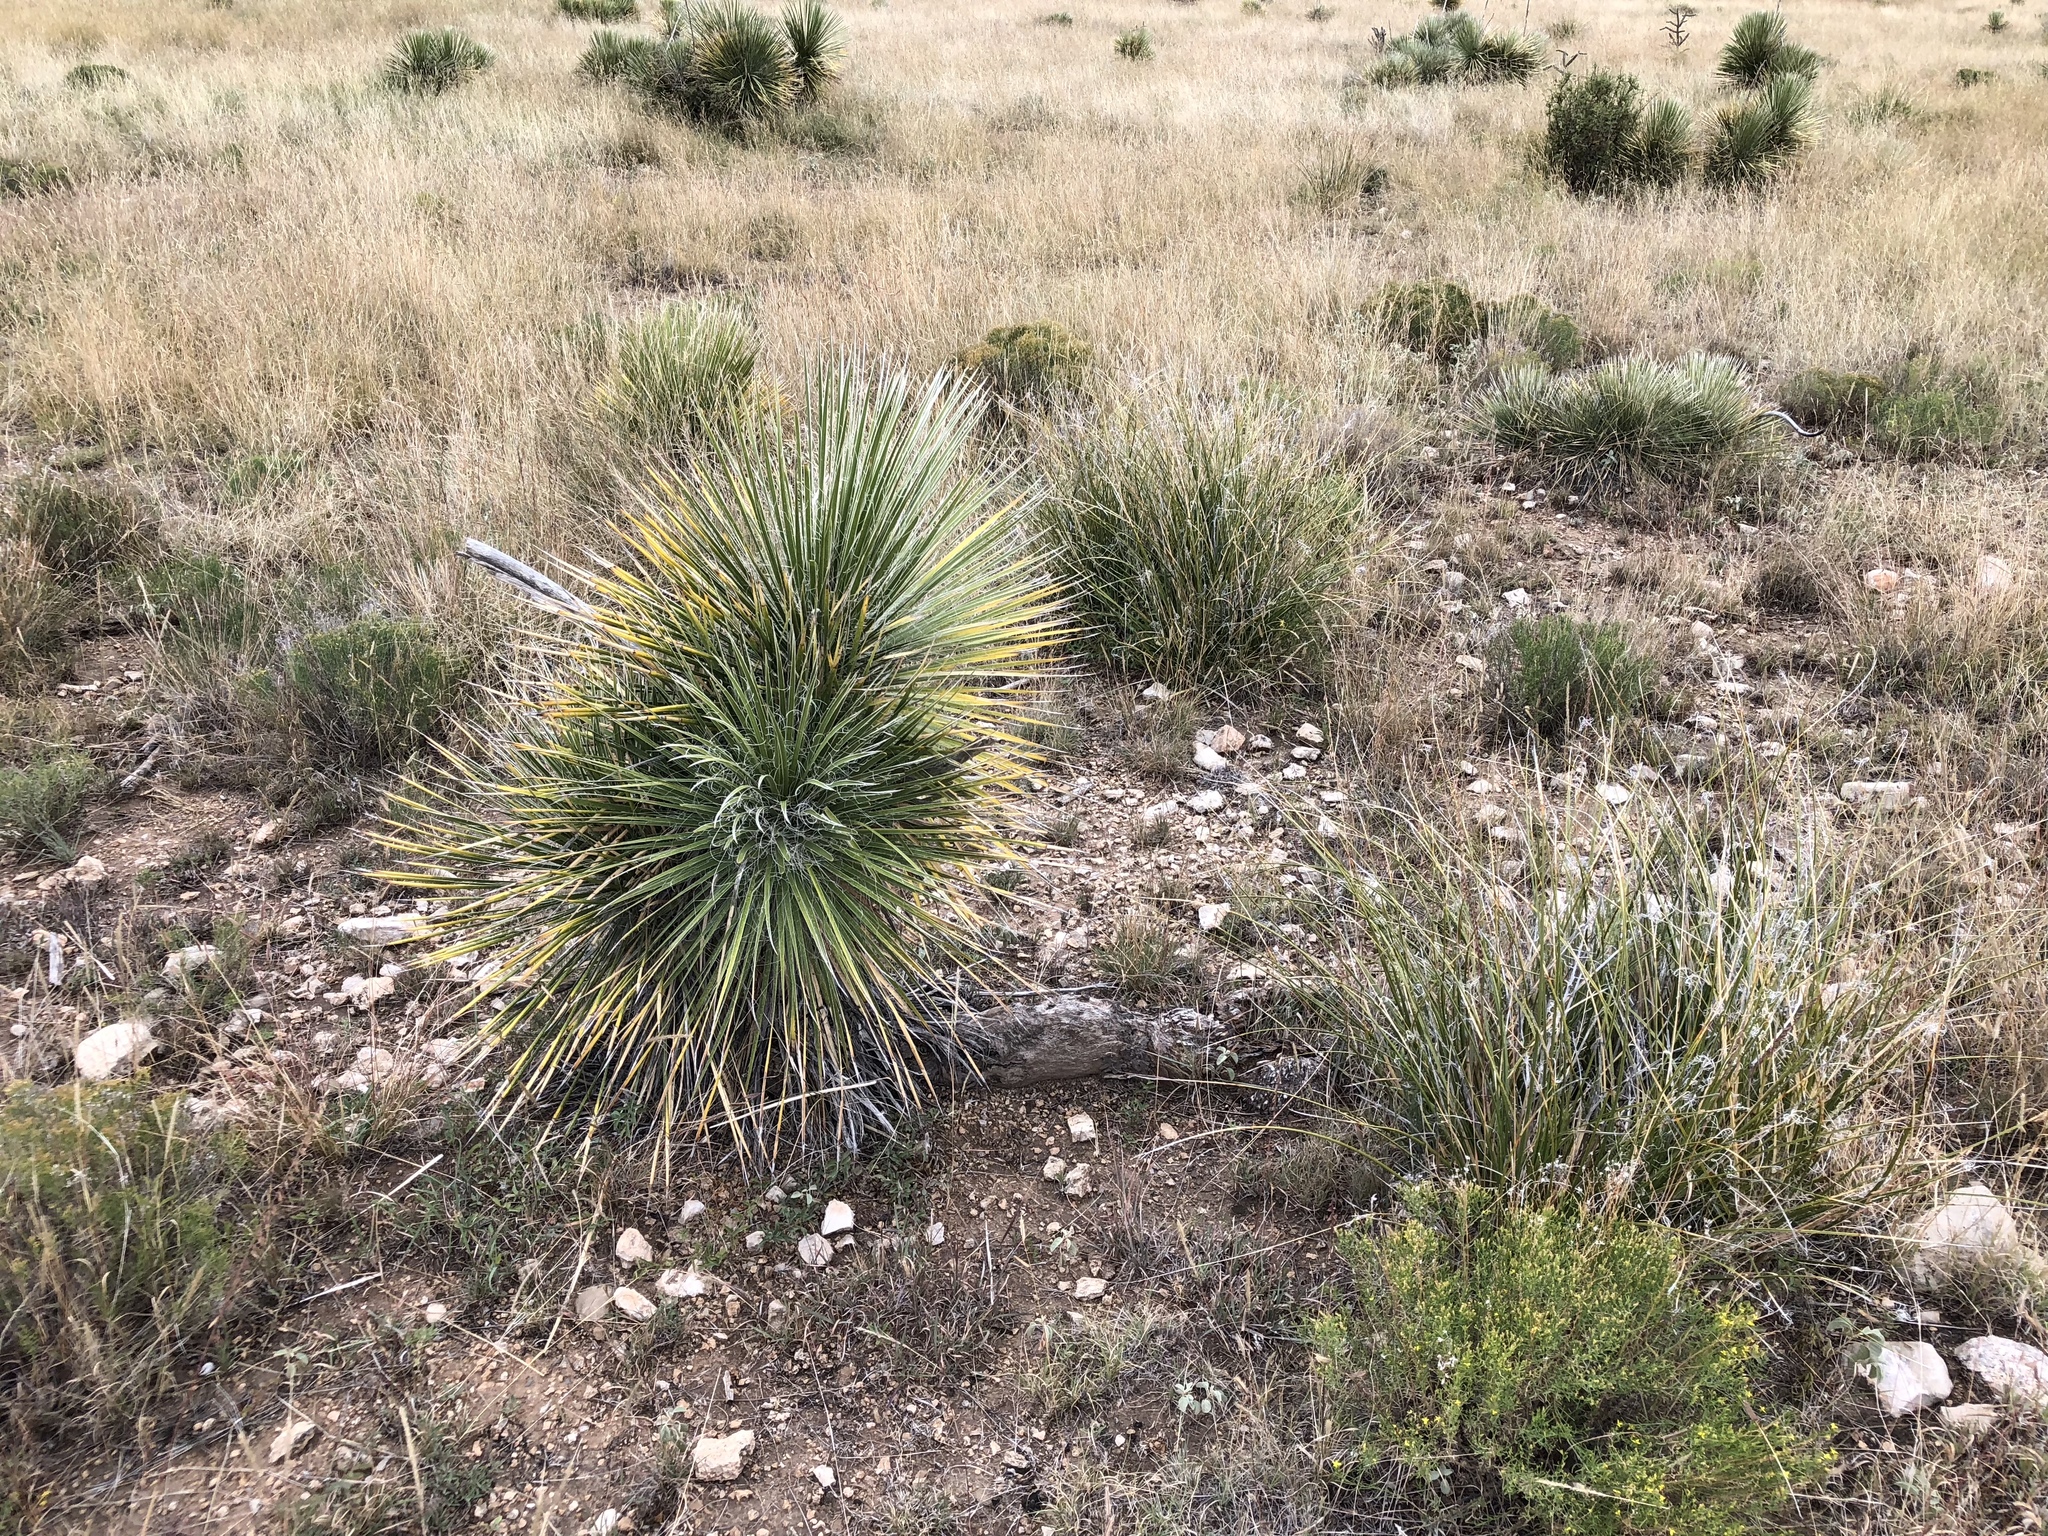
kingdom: Plantae
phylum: Tracheophyta
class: Liliopsida
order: Asparagales
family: Asparagaceae
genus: Yucca
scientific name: Yucca elata
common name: Palmella
